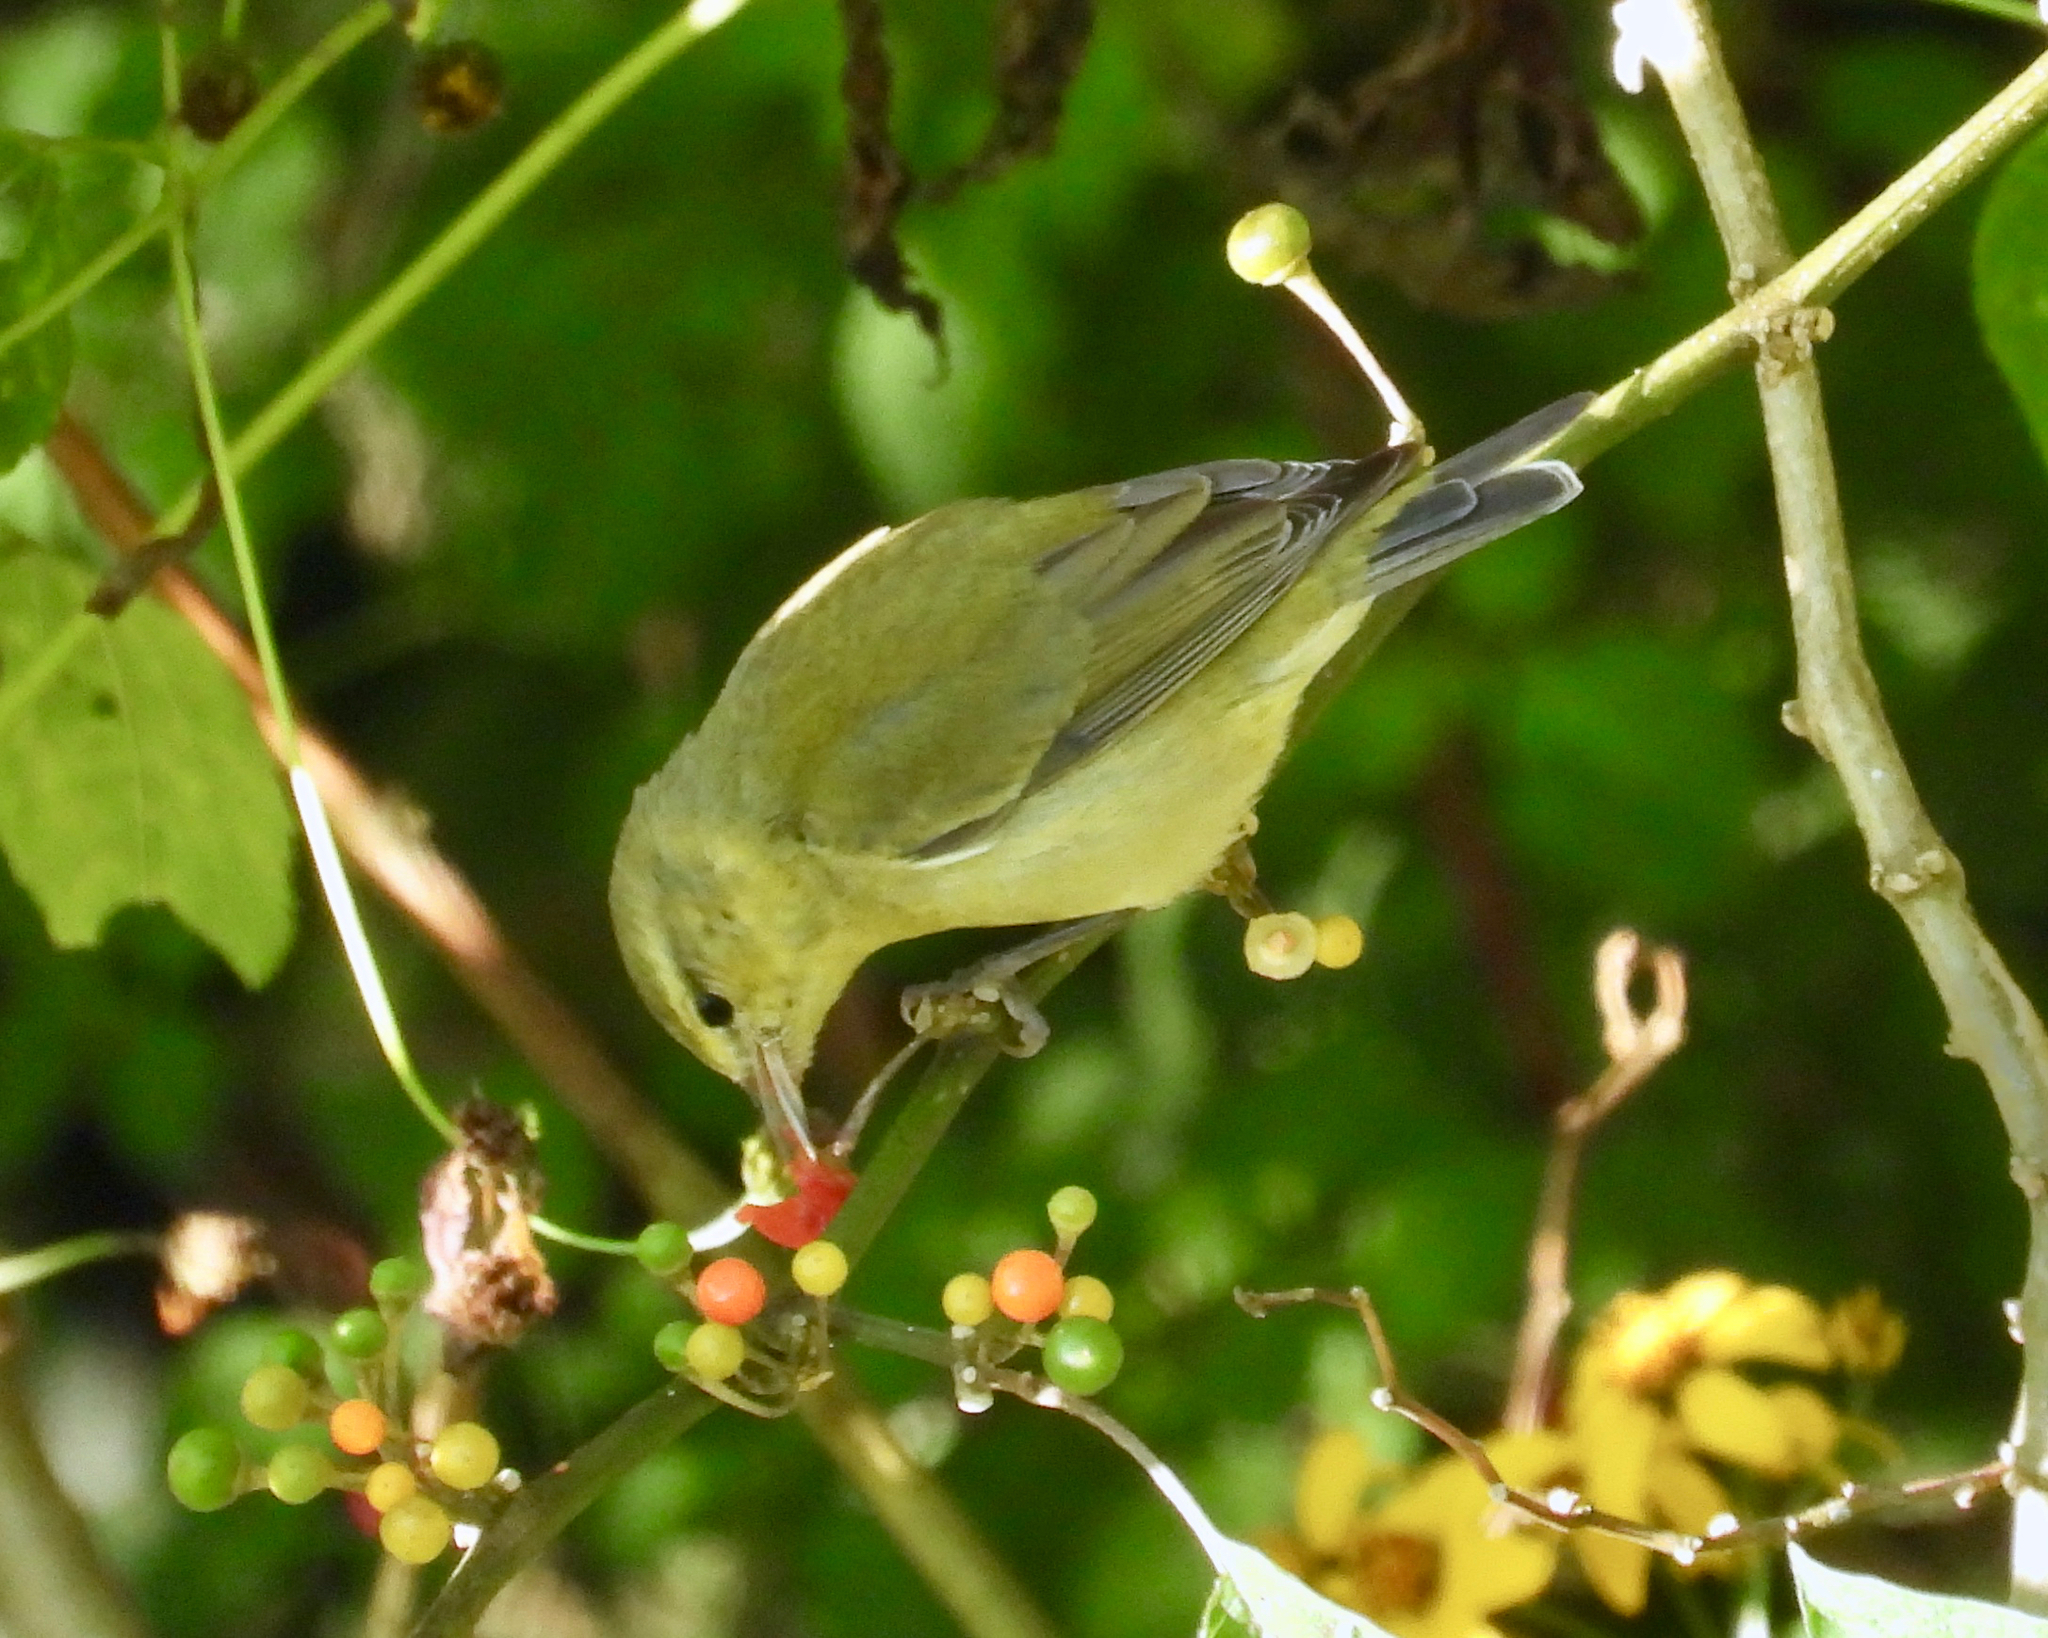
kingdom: Animalia
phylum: Chordata
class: Aves
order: Passeriformes
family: Parulidae
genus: Leiothlypis
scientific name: Leiothlypis peregrina
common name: Tennessee warbler
